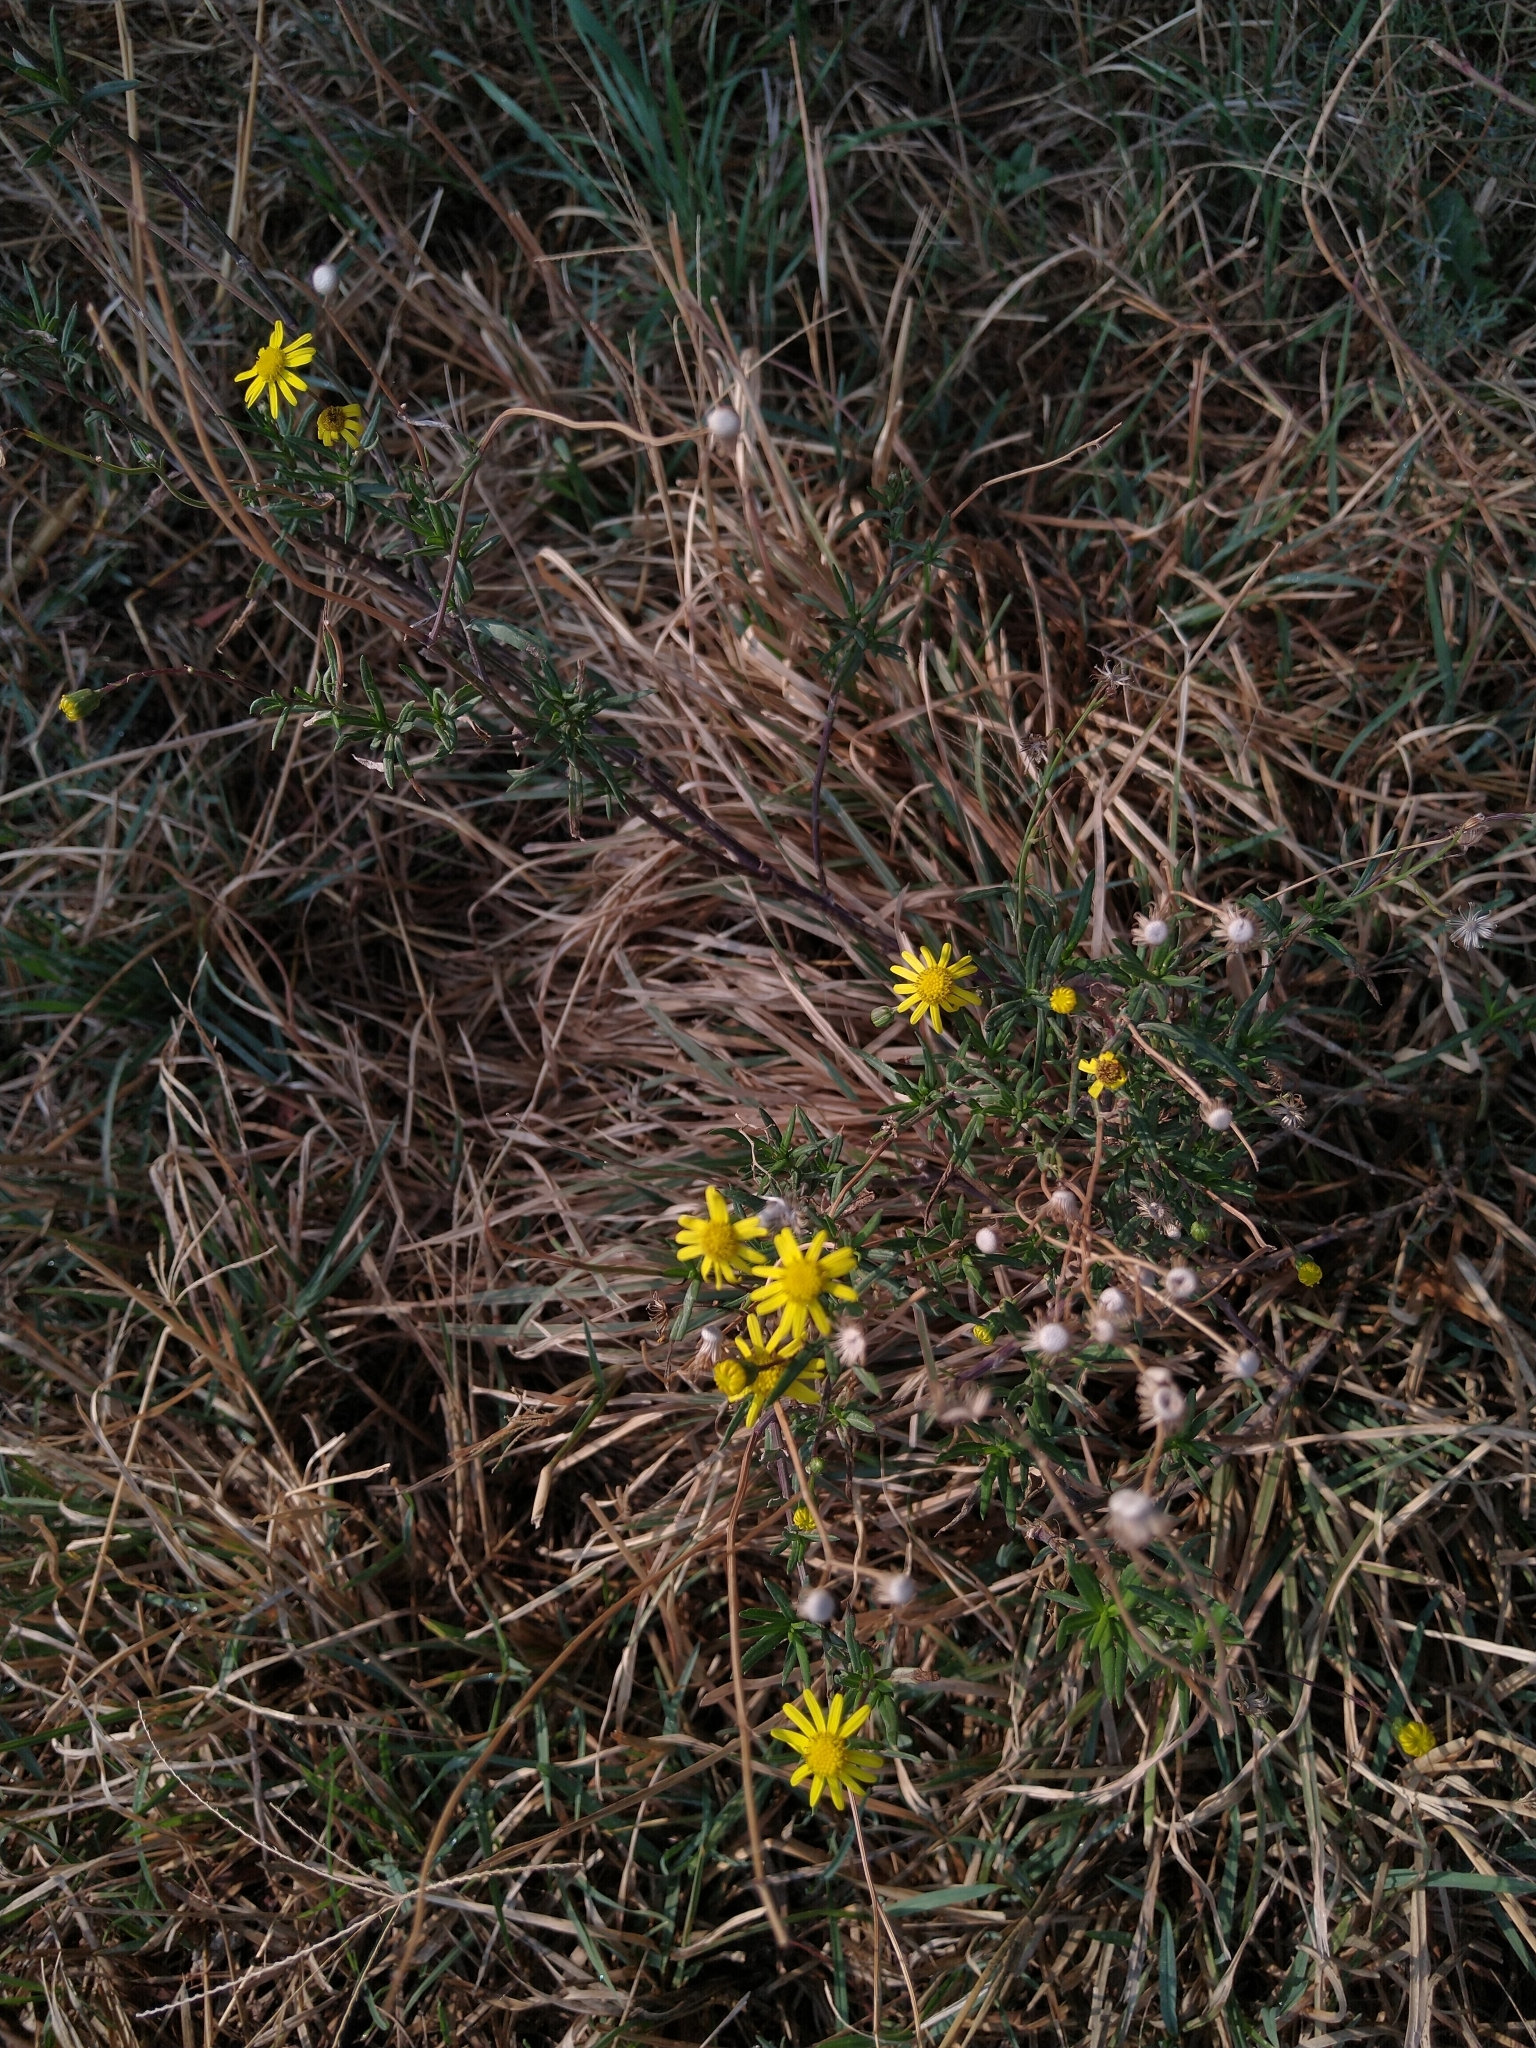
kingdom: Plantae
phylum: Tracheophyta
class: Magnoliopsida
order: Asterales
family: Asteraceae
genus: Senecio
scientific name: Senecio inaequidens
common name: Narrow-leaved ragwort
